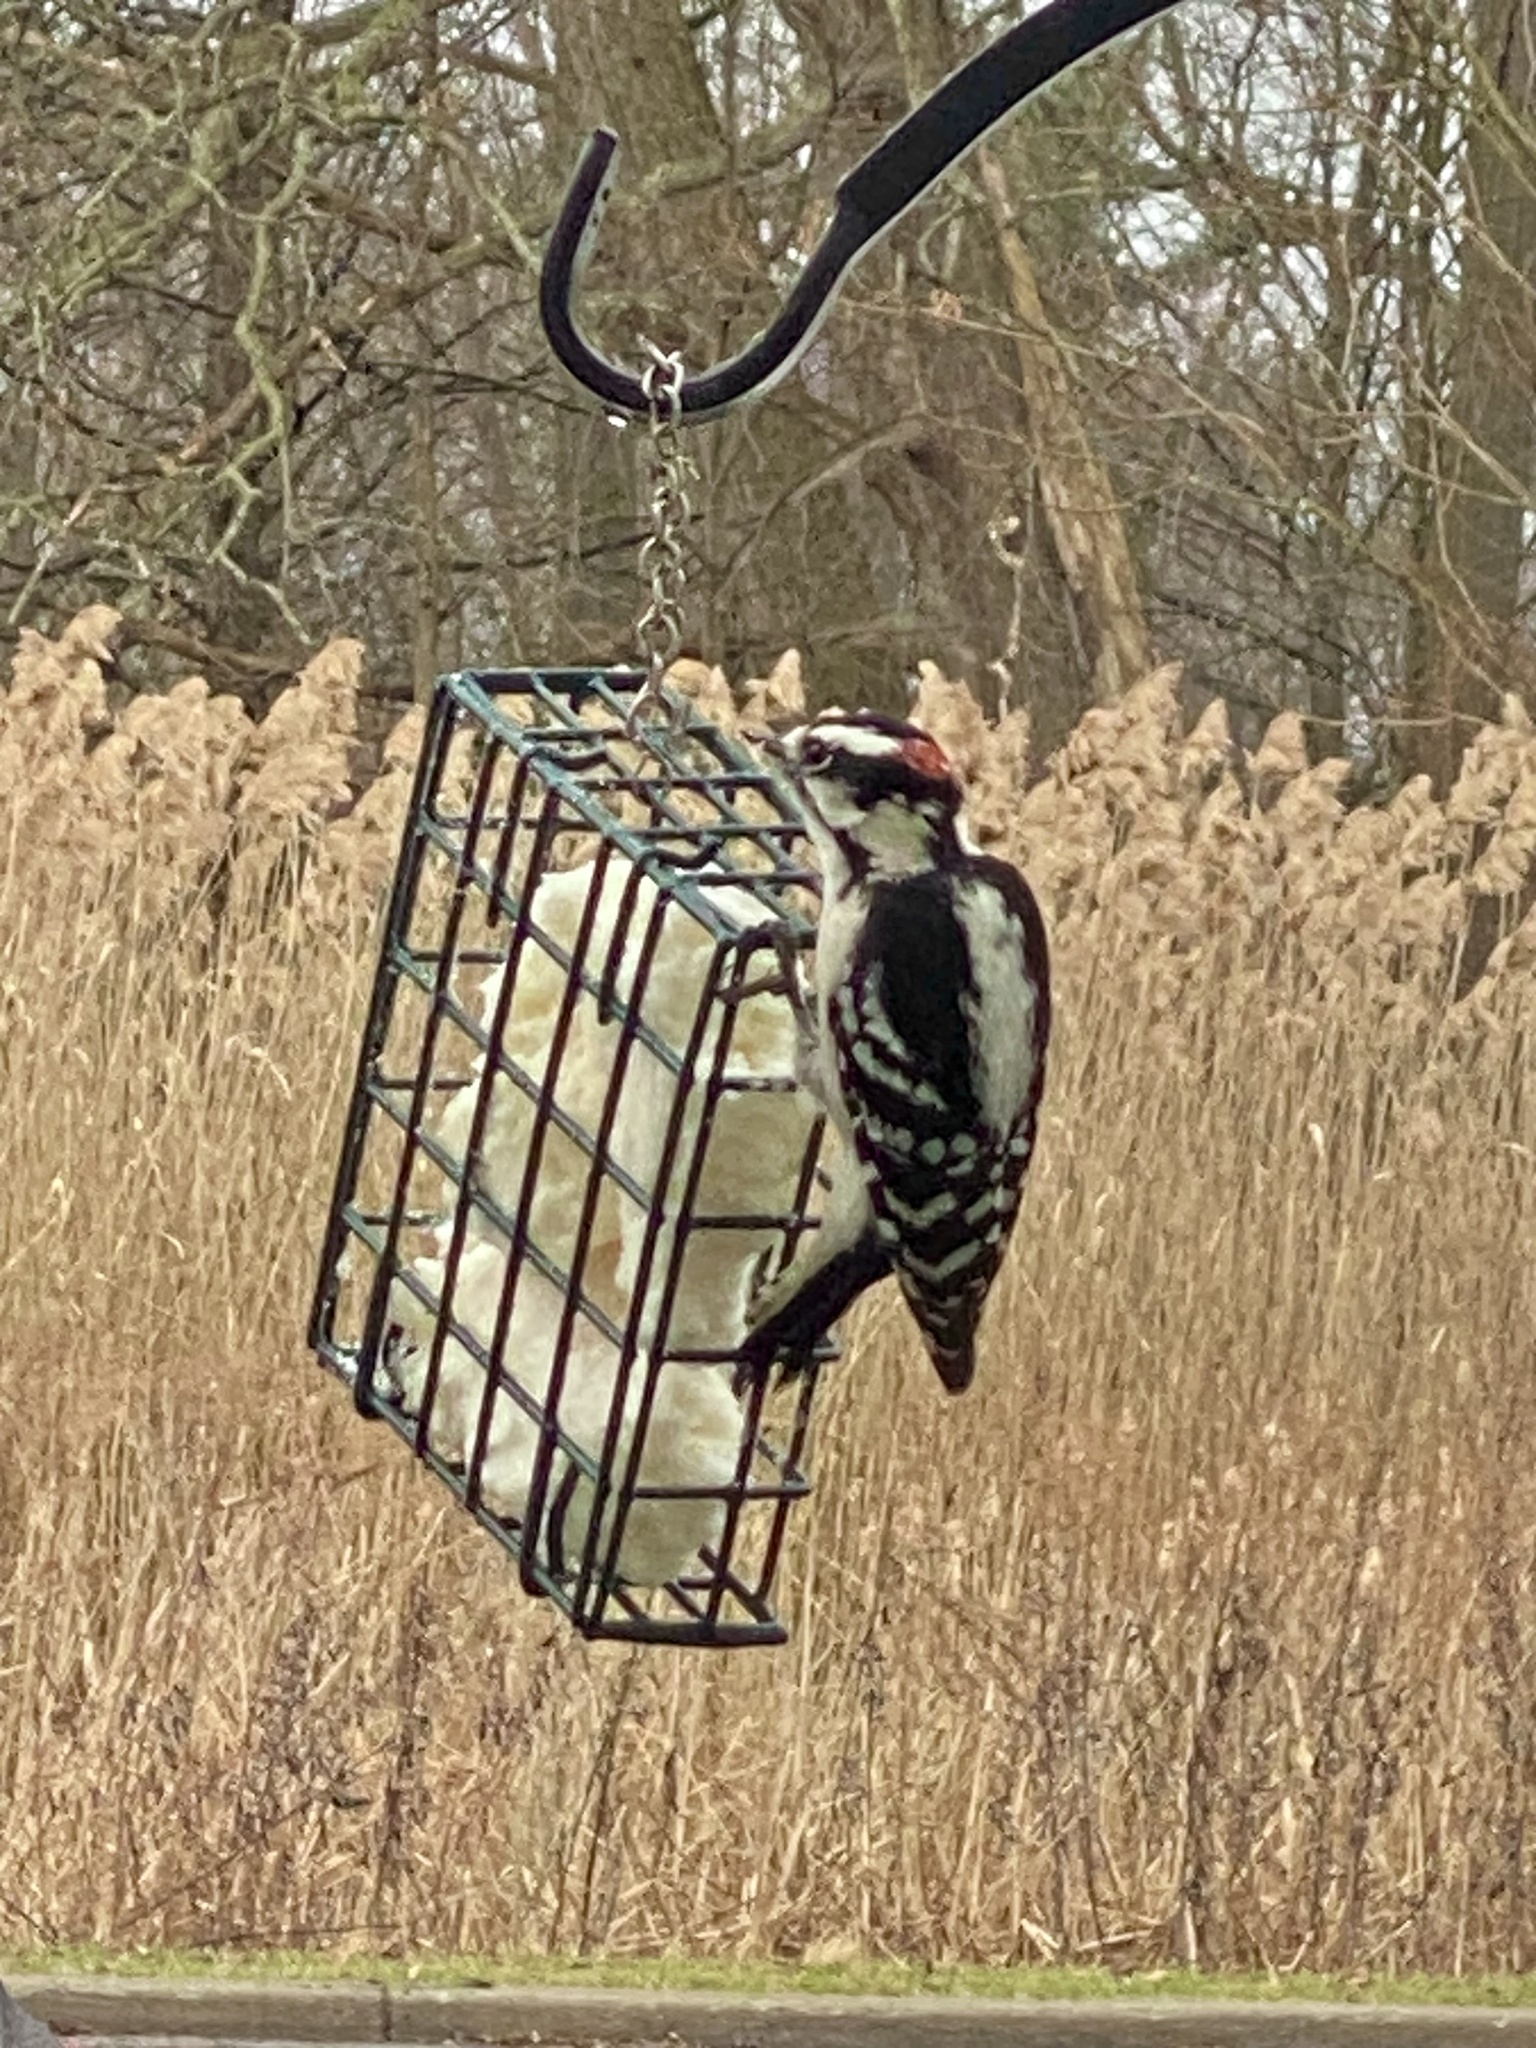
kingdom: Animalia
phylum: Chordata
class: Aves
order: Piciformes
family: Picidae
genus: Dryobates
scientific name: Dryobates pubescens
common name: Downy woodpecker
